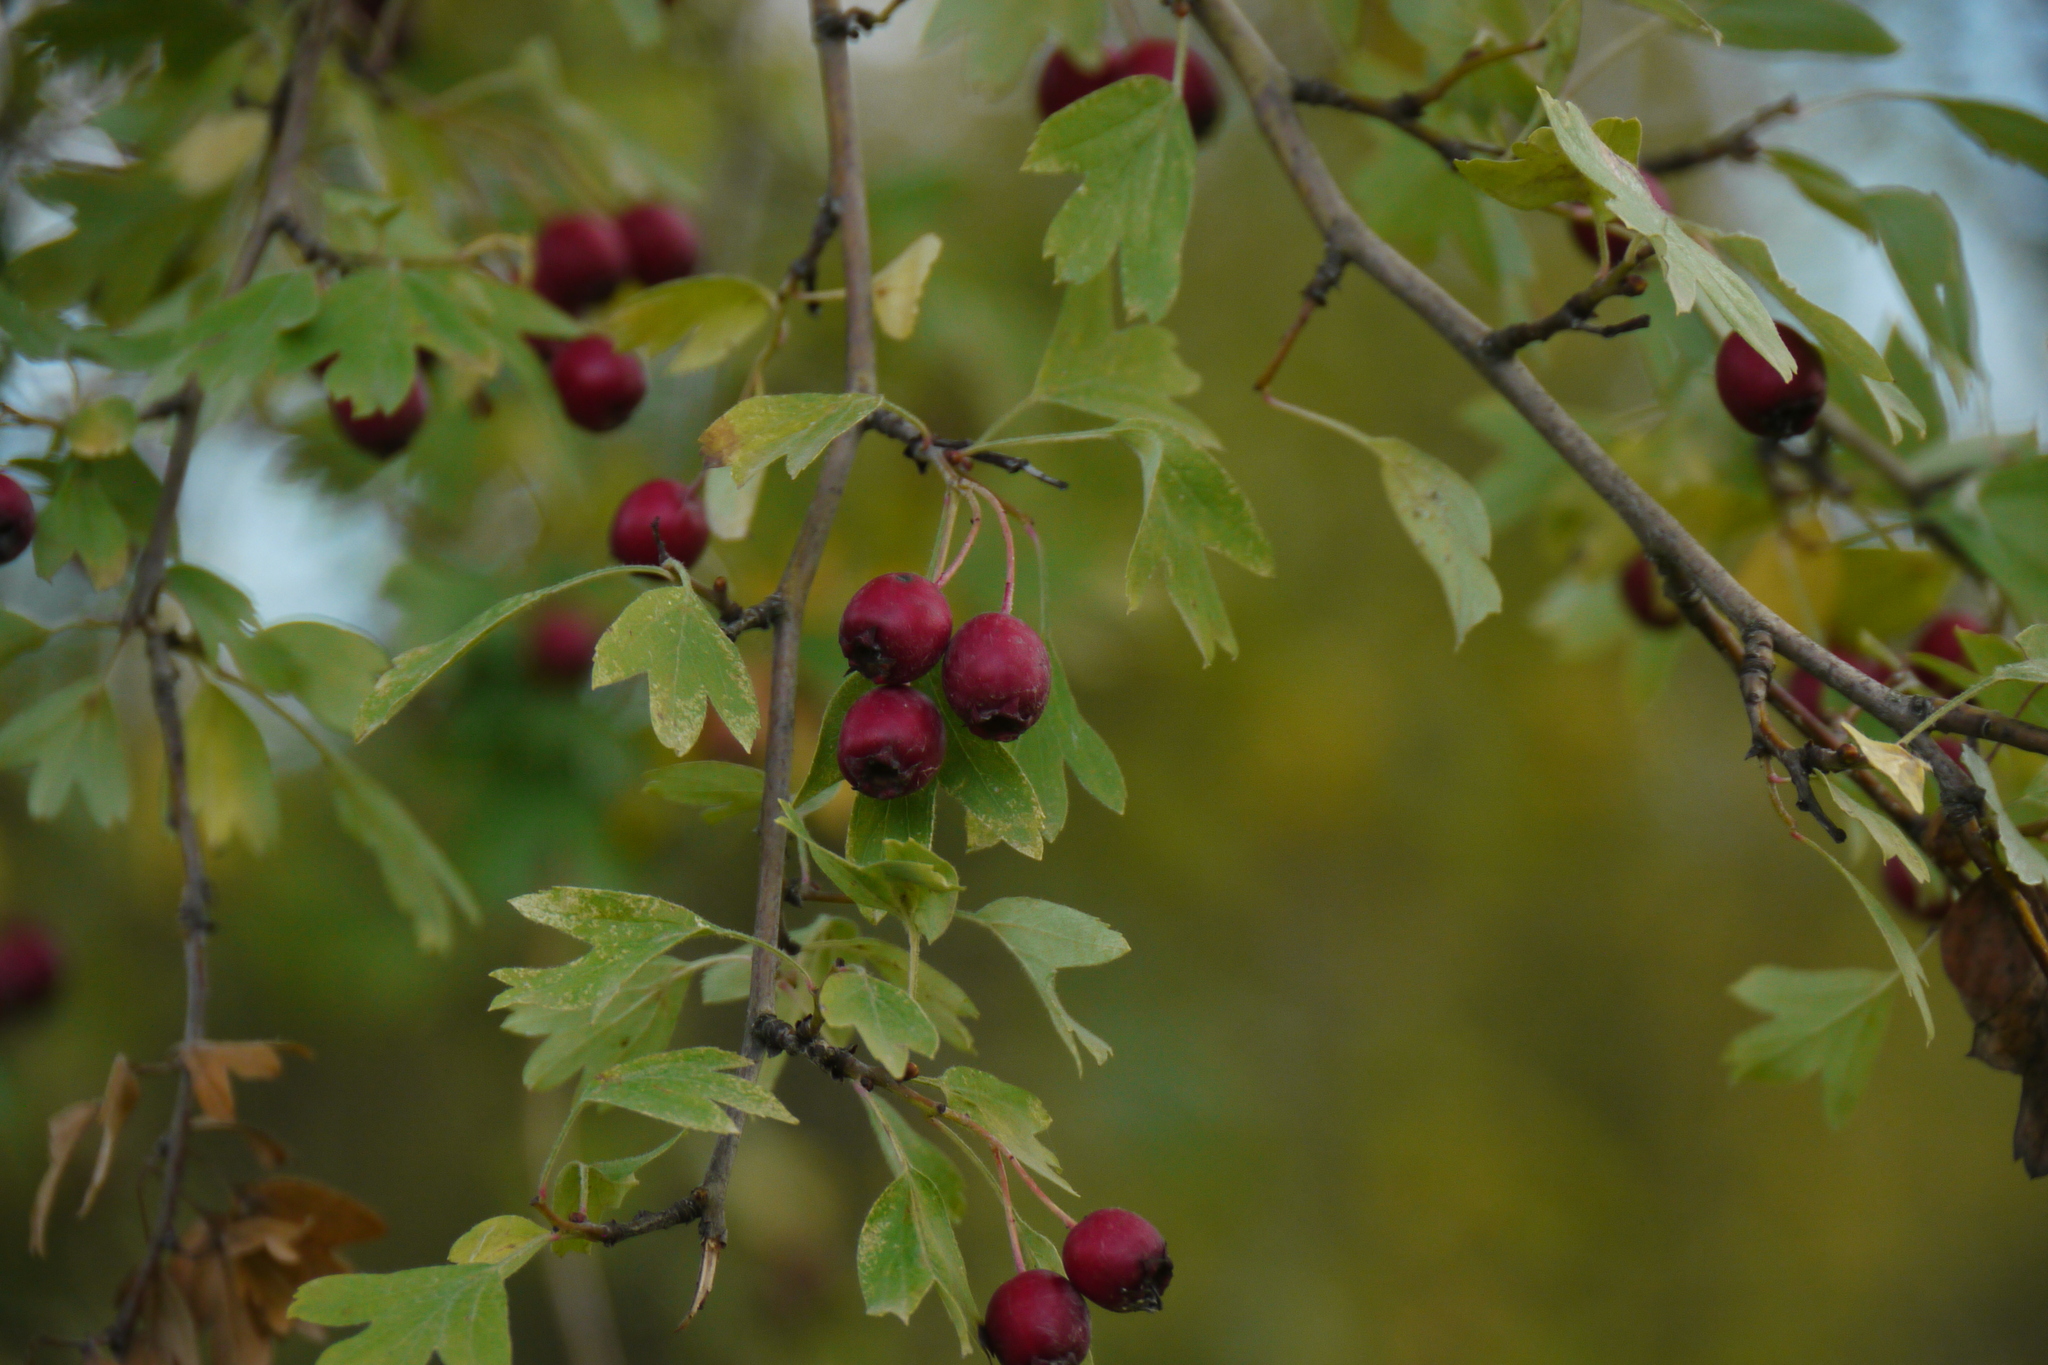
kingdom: Plantae
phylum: Tracheophyta
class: Magnoliopsida
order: Rosales
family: Rosaceae
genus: Crataegus
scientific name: Crataegus monogyna
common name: Hawthorn
